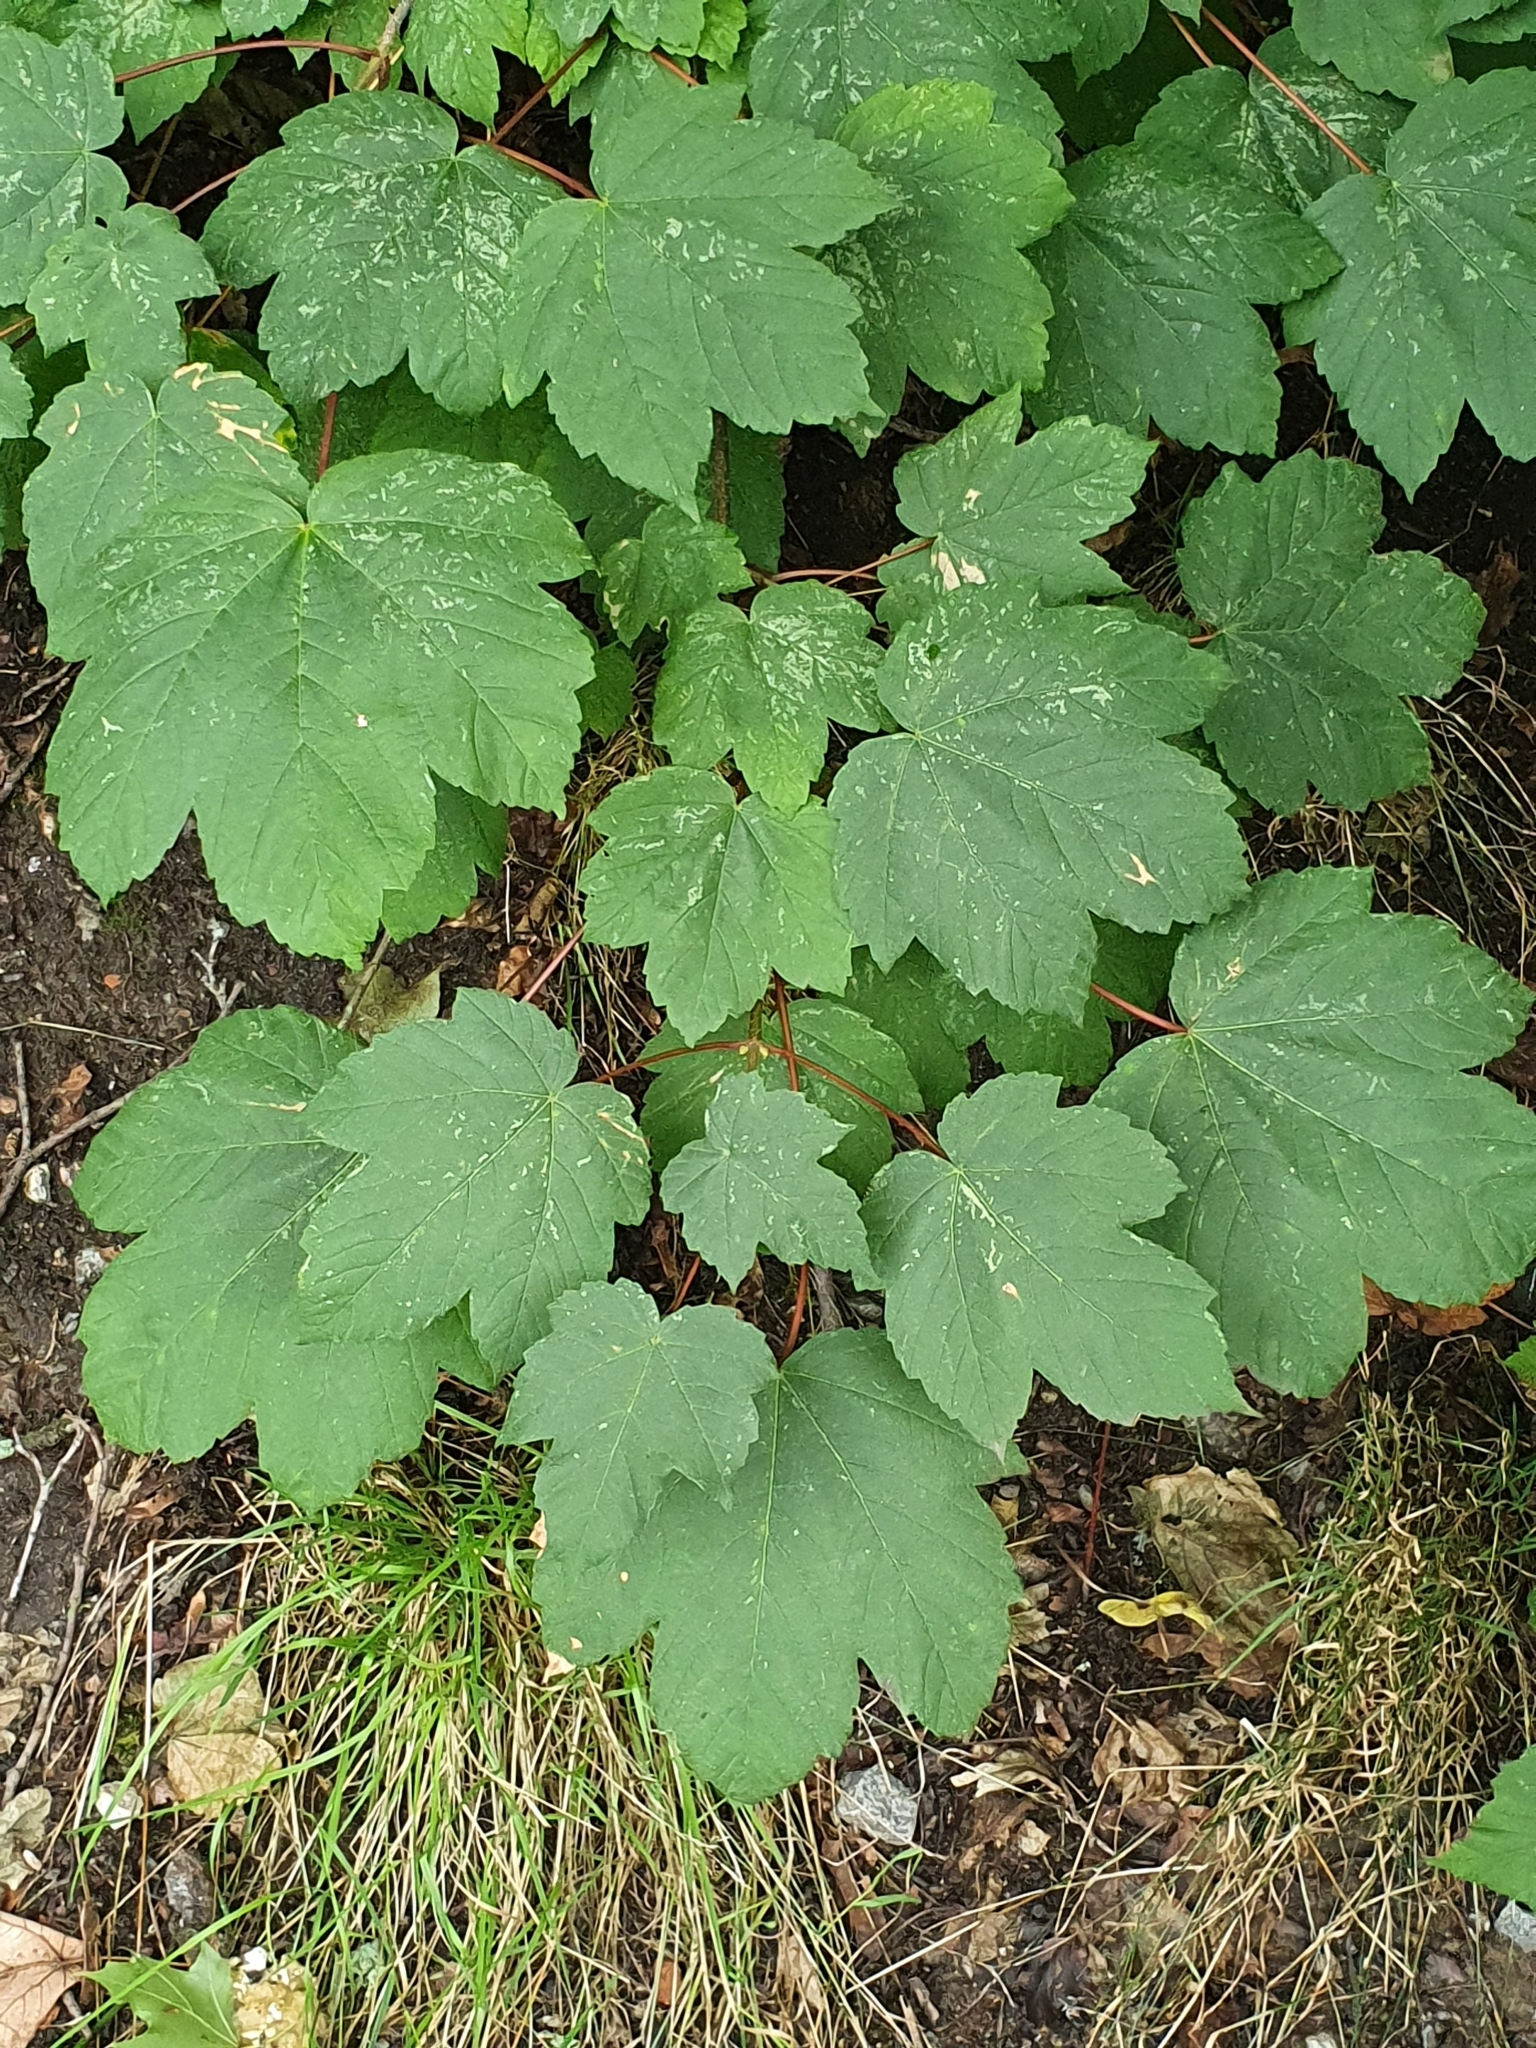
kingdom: Plantae
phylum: Tracheophyta
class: Magnoliopsida
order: Sapindales
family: Sapindaceae
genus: Acer
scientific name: Acer pseudoplatanus
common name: Sycamore
